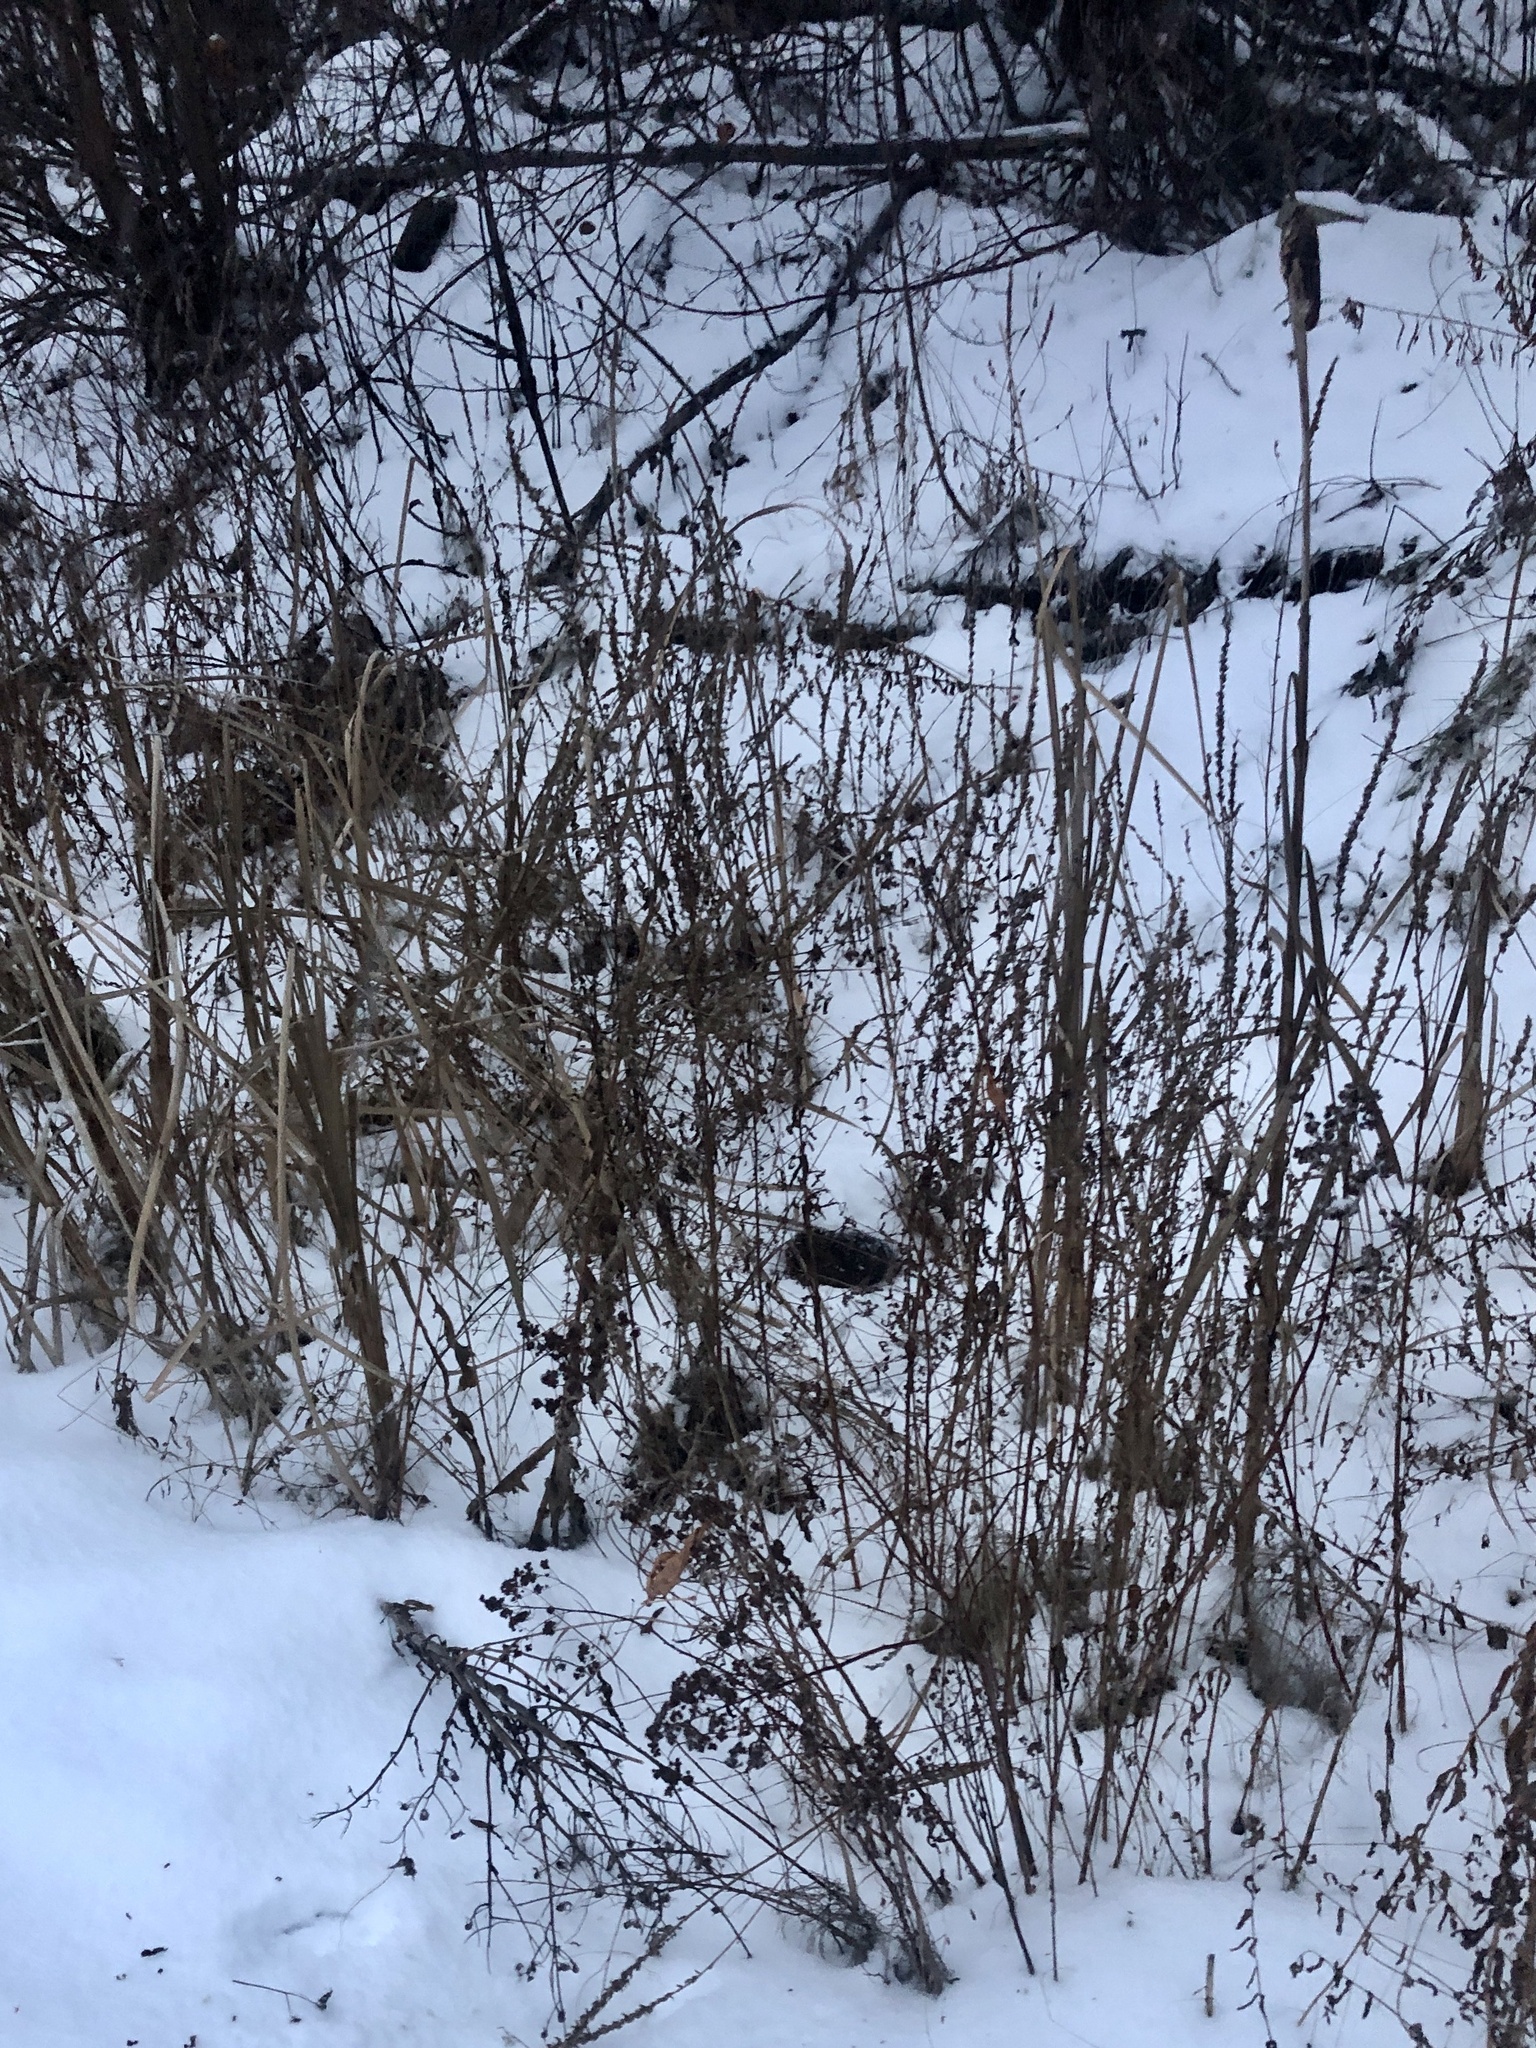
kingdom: Animalia
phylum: Chordata
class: Mammalia
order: Rodentia
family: Cricetidae
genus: Ondatra
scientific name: Ondatra zibethicus
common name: Muskrat
